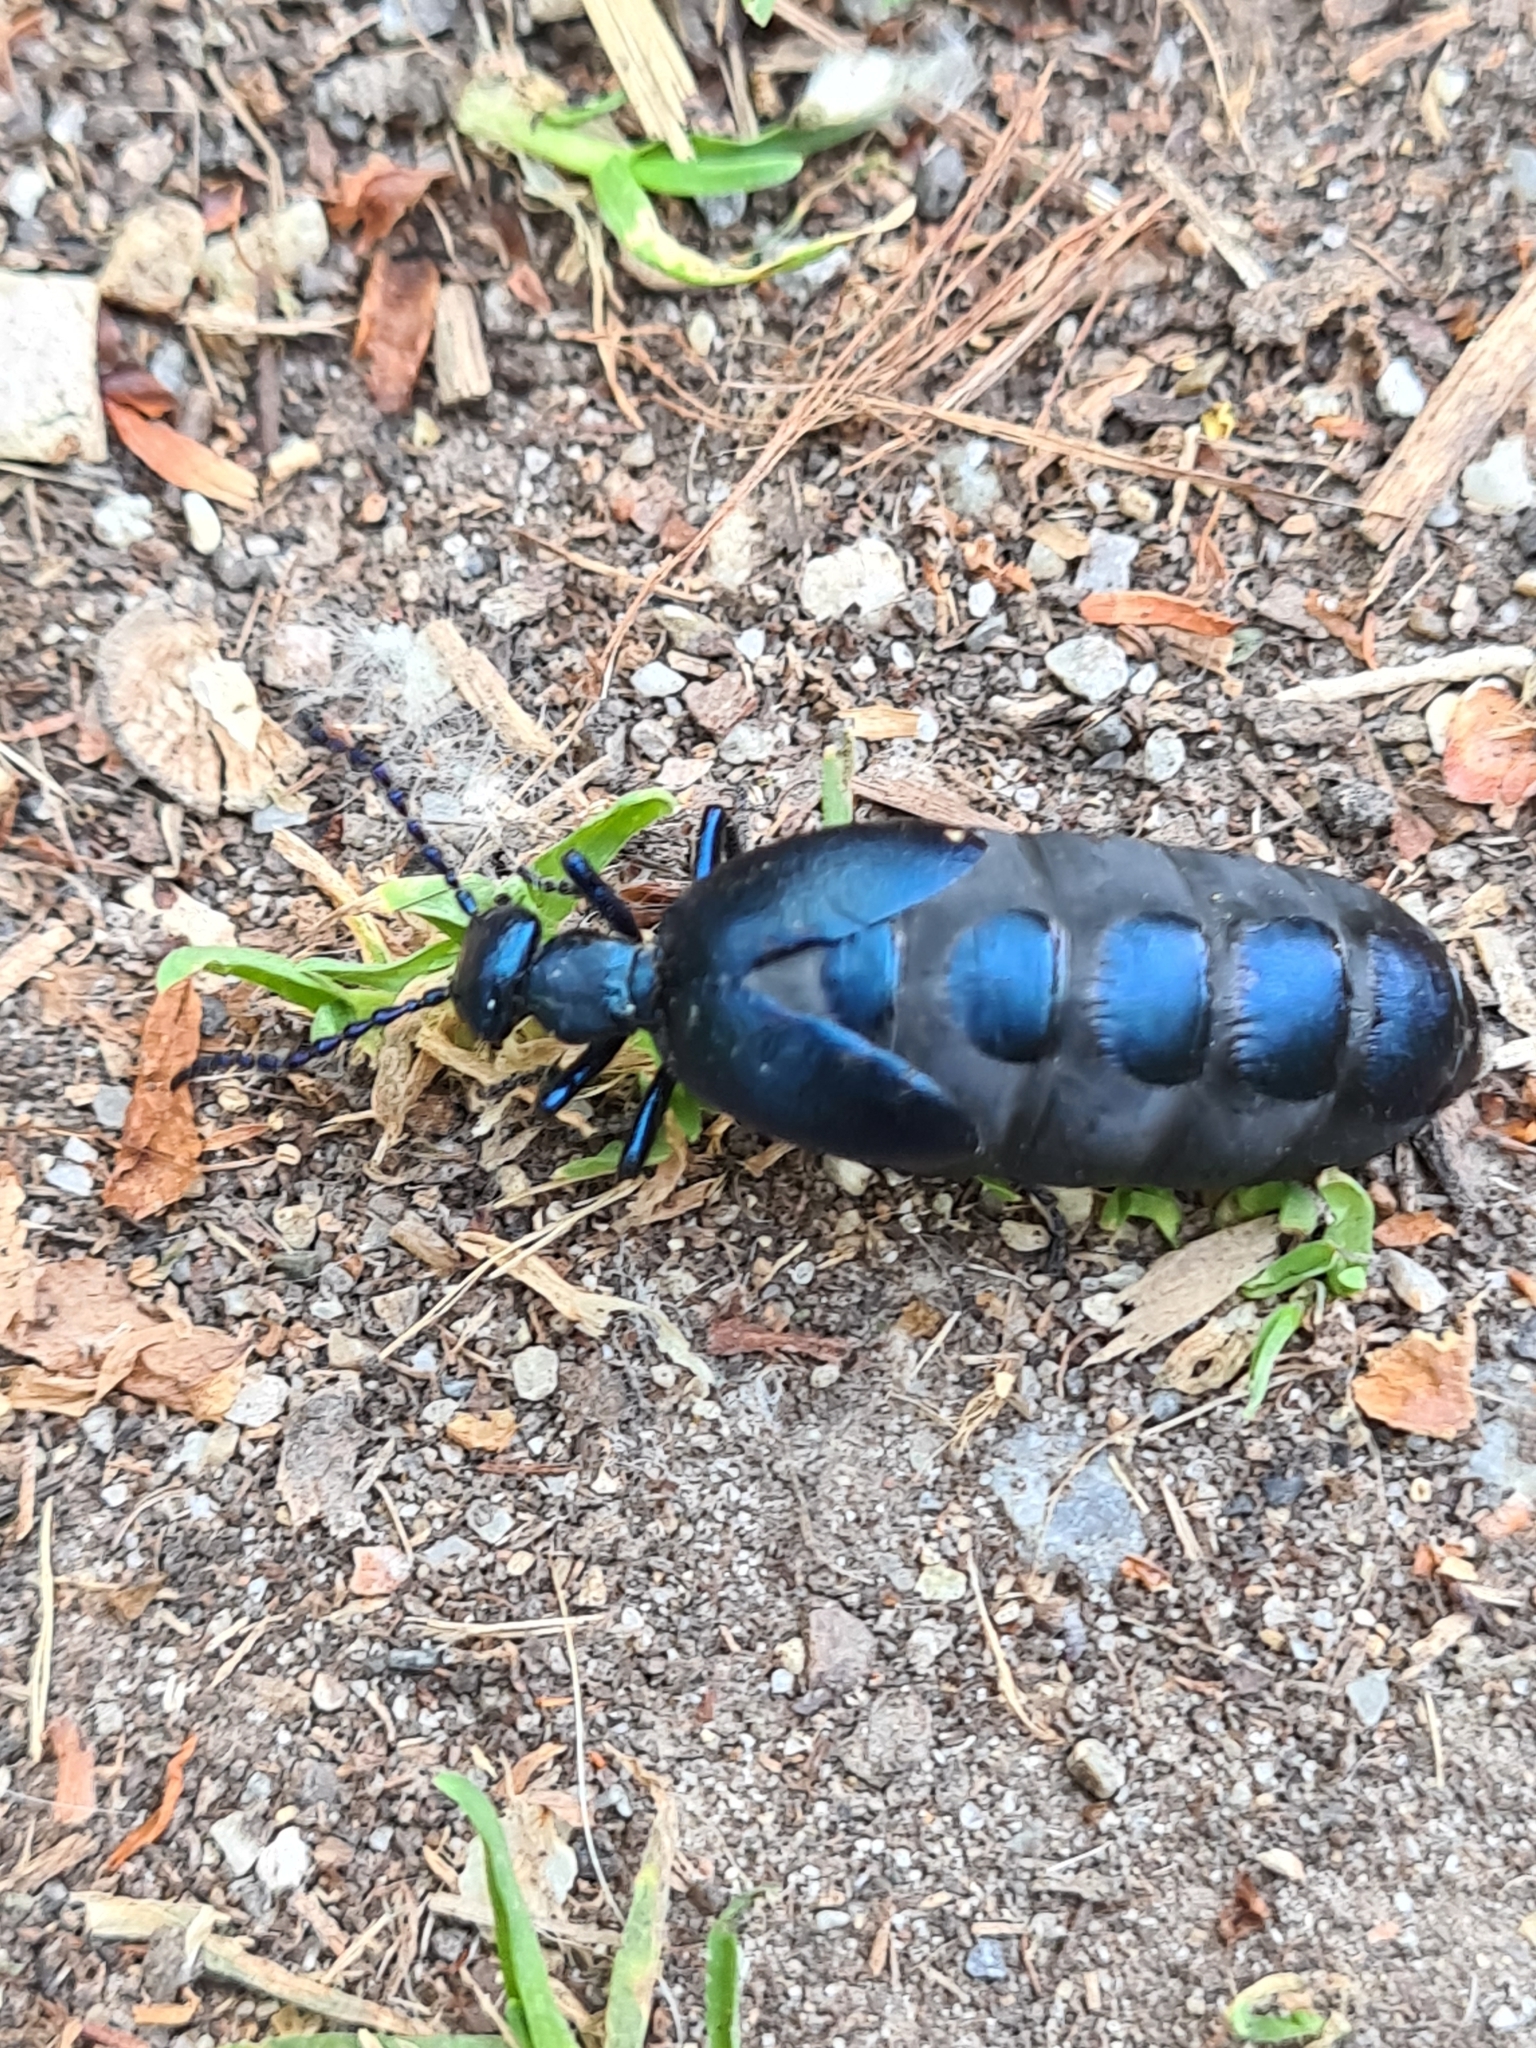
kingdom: Animalia
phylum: Arthropoda
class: Insecta
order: Coleoptera
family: Meloidae
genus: Meloe
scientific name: Meloe violaceus
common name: Violet oil-beetle
